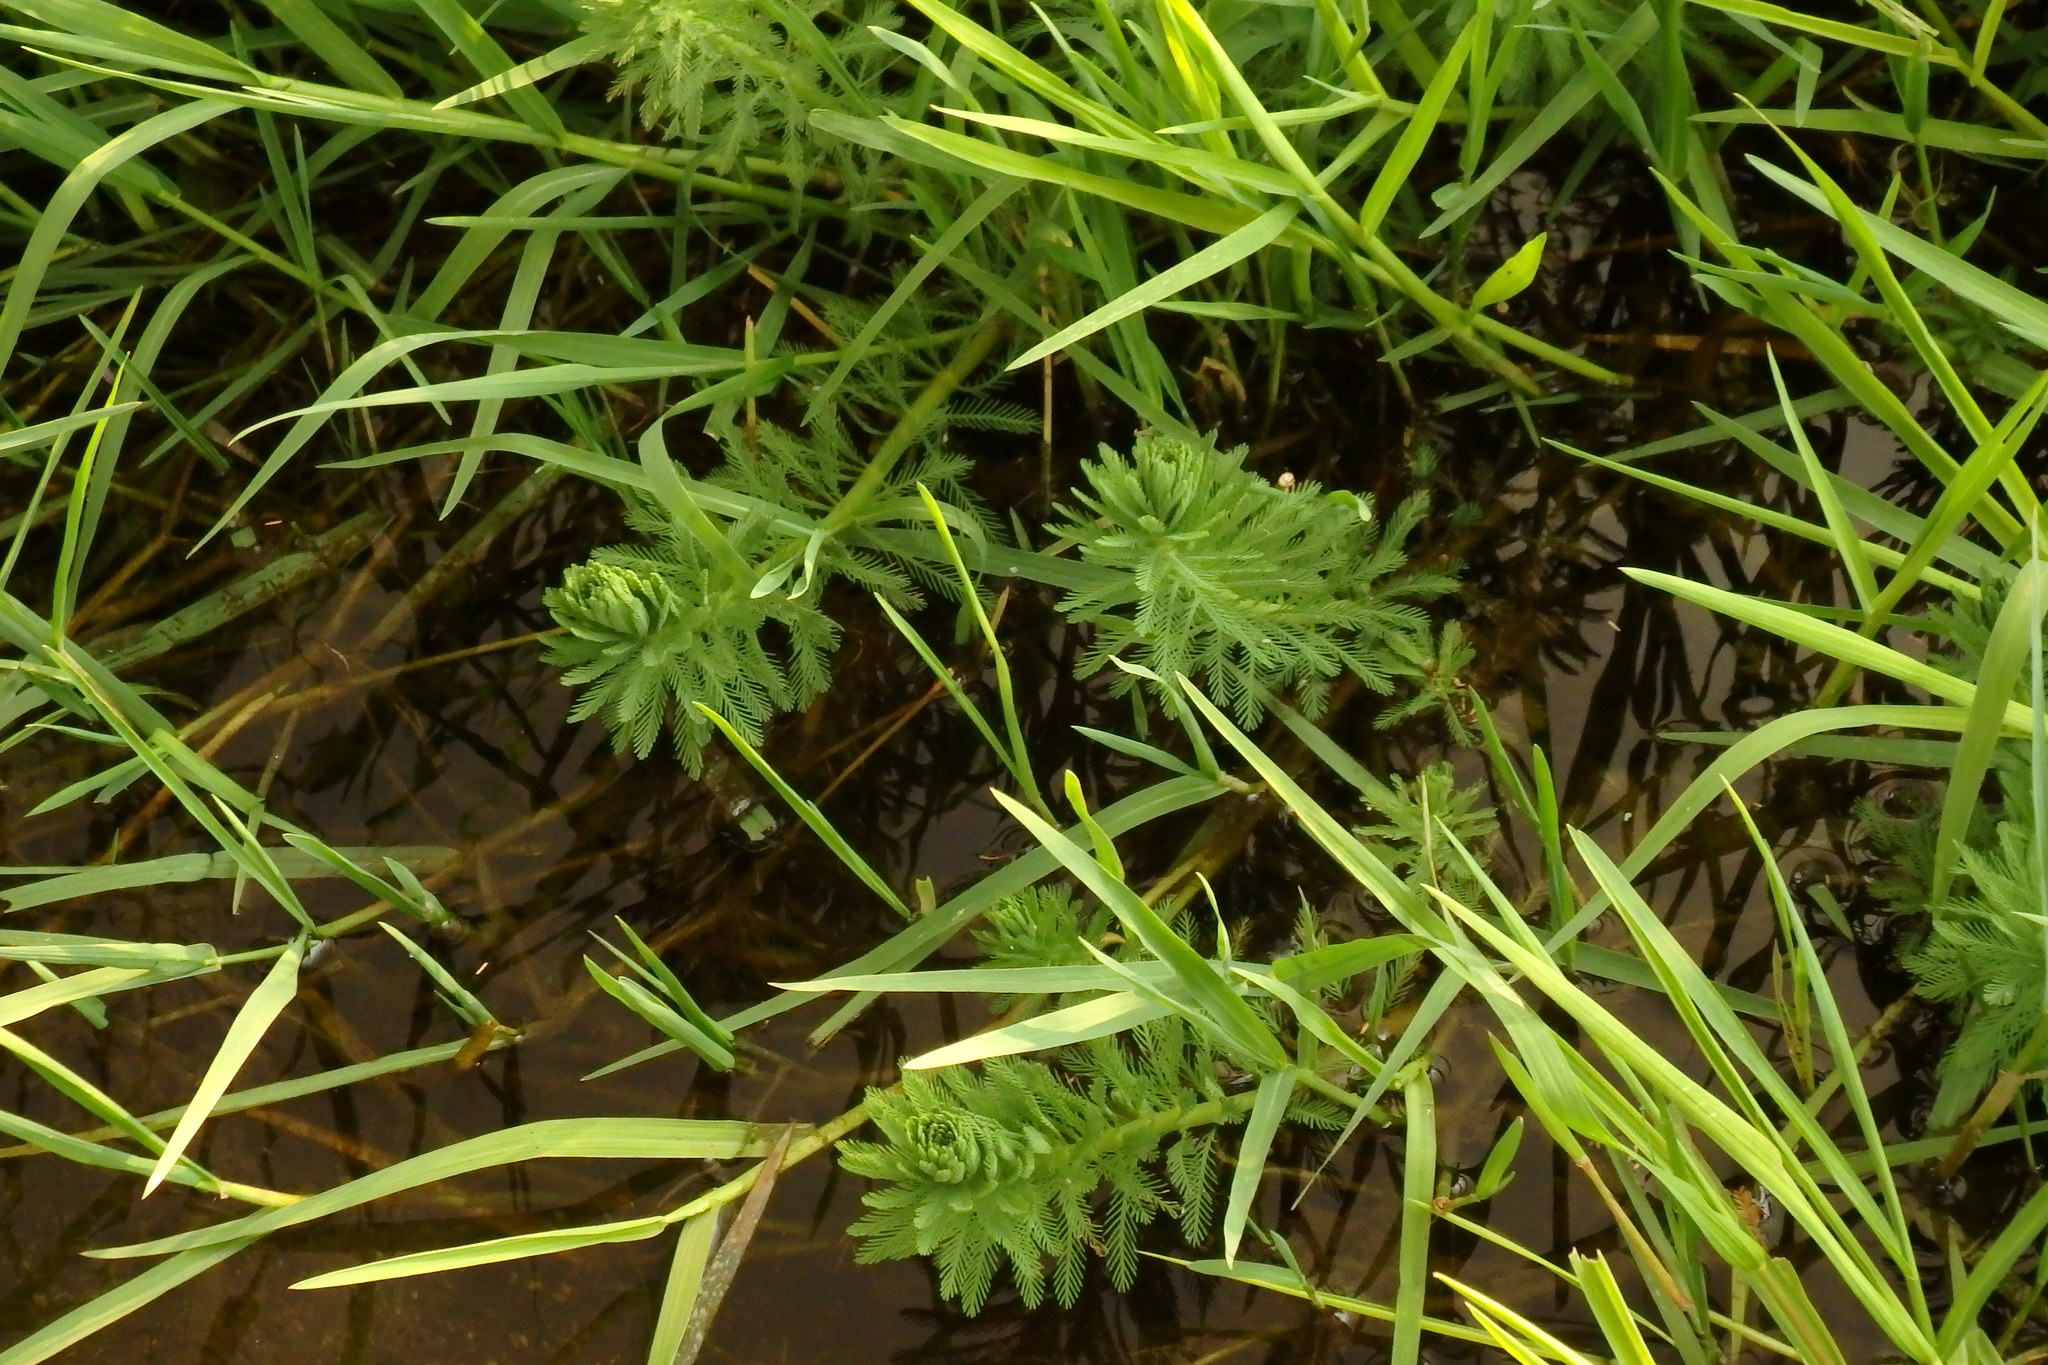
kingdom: Plantae
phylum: Tracheophyta
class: Magnoliopsida
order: Saxifragales
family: Haloragaceae
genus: Myriophyllum
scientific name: Myriophyllum aquaticum
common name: Parrot's feather
